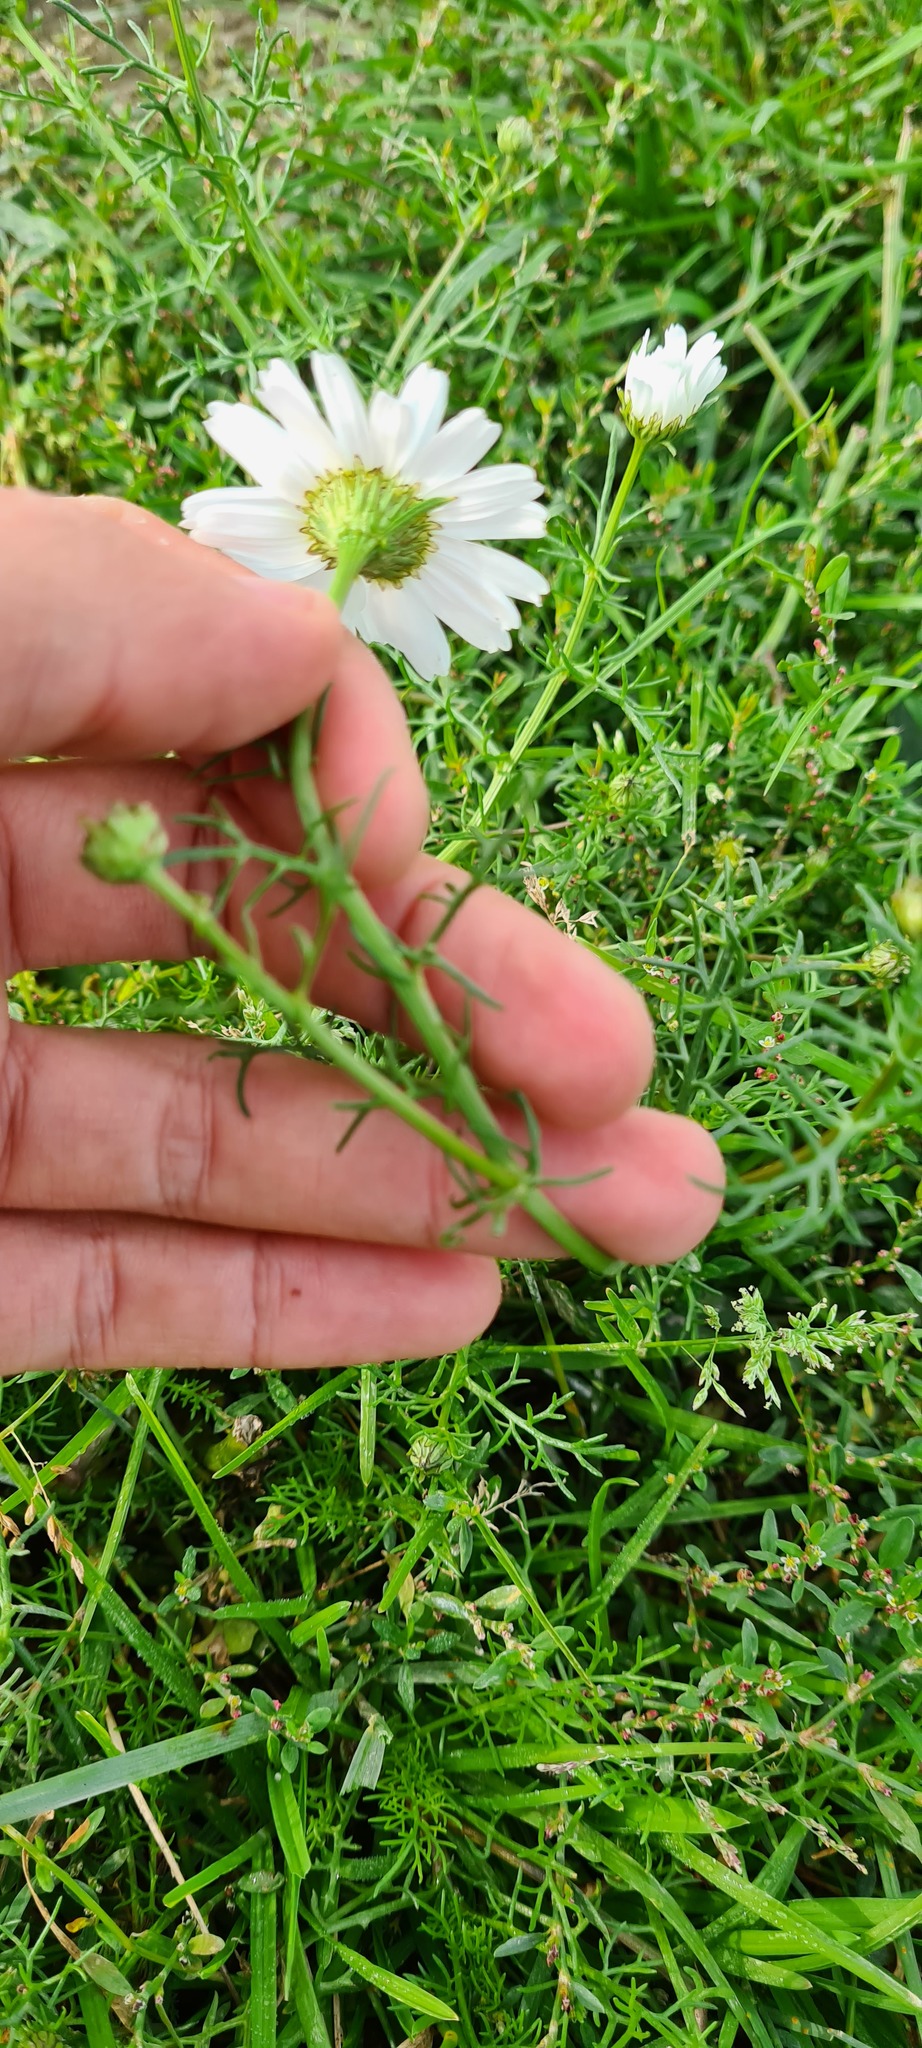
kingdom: Plantae
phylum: Tracheophyta
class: Magnoliopsida
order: Asterales
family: Asteraceae
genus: Tripleurospermum
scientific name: Tripleurospermum inodorum
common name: Scentless mayweed
